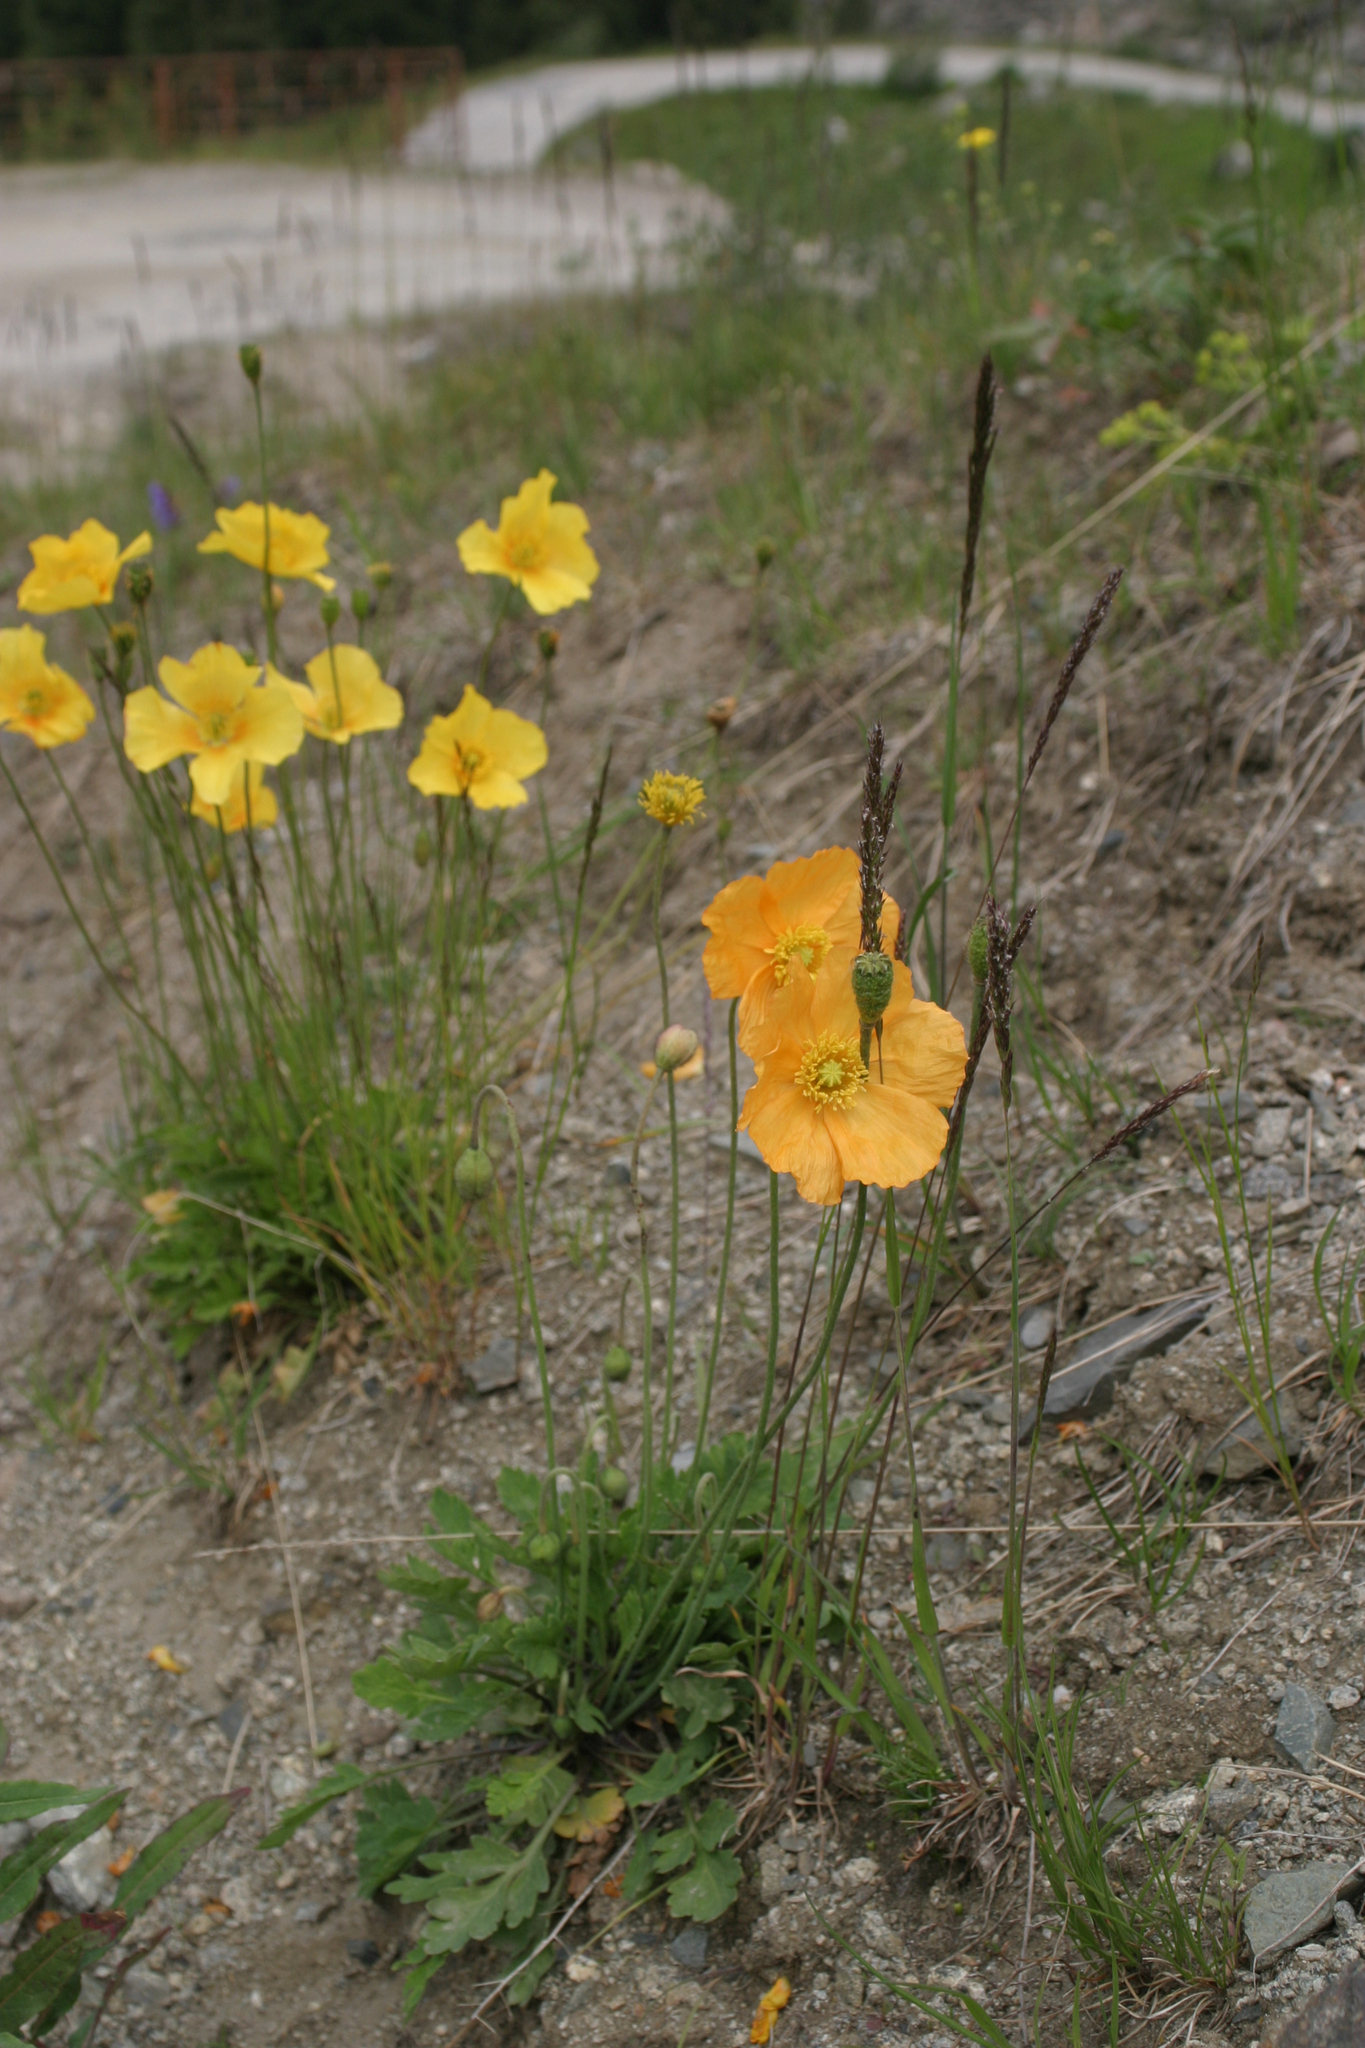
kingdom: Plantae
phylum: Tracheophyta
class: Magnoliopsida
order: Ranunculales
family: Papaveraceae
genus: Oreomecon
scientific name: Oreomecon
